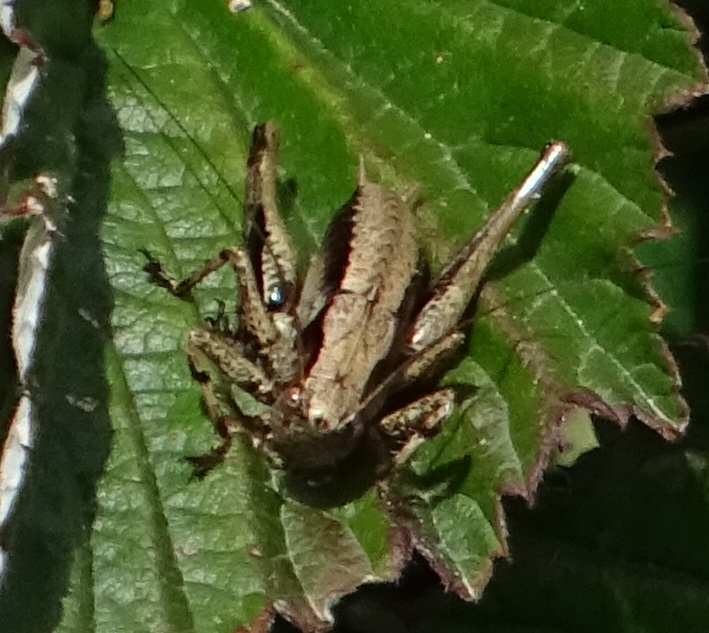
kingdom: Animalia
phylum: Arthropoda
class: Insecta
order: Orthoptera
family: Tettigoniidae
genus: Pholidoptera
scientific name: Pholidoptera griseoaptera
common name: Dark bush-cricket
